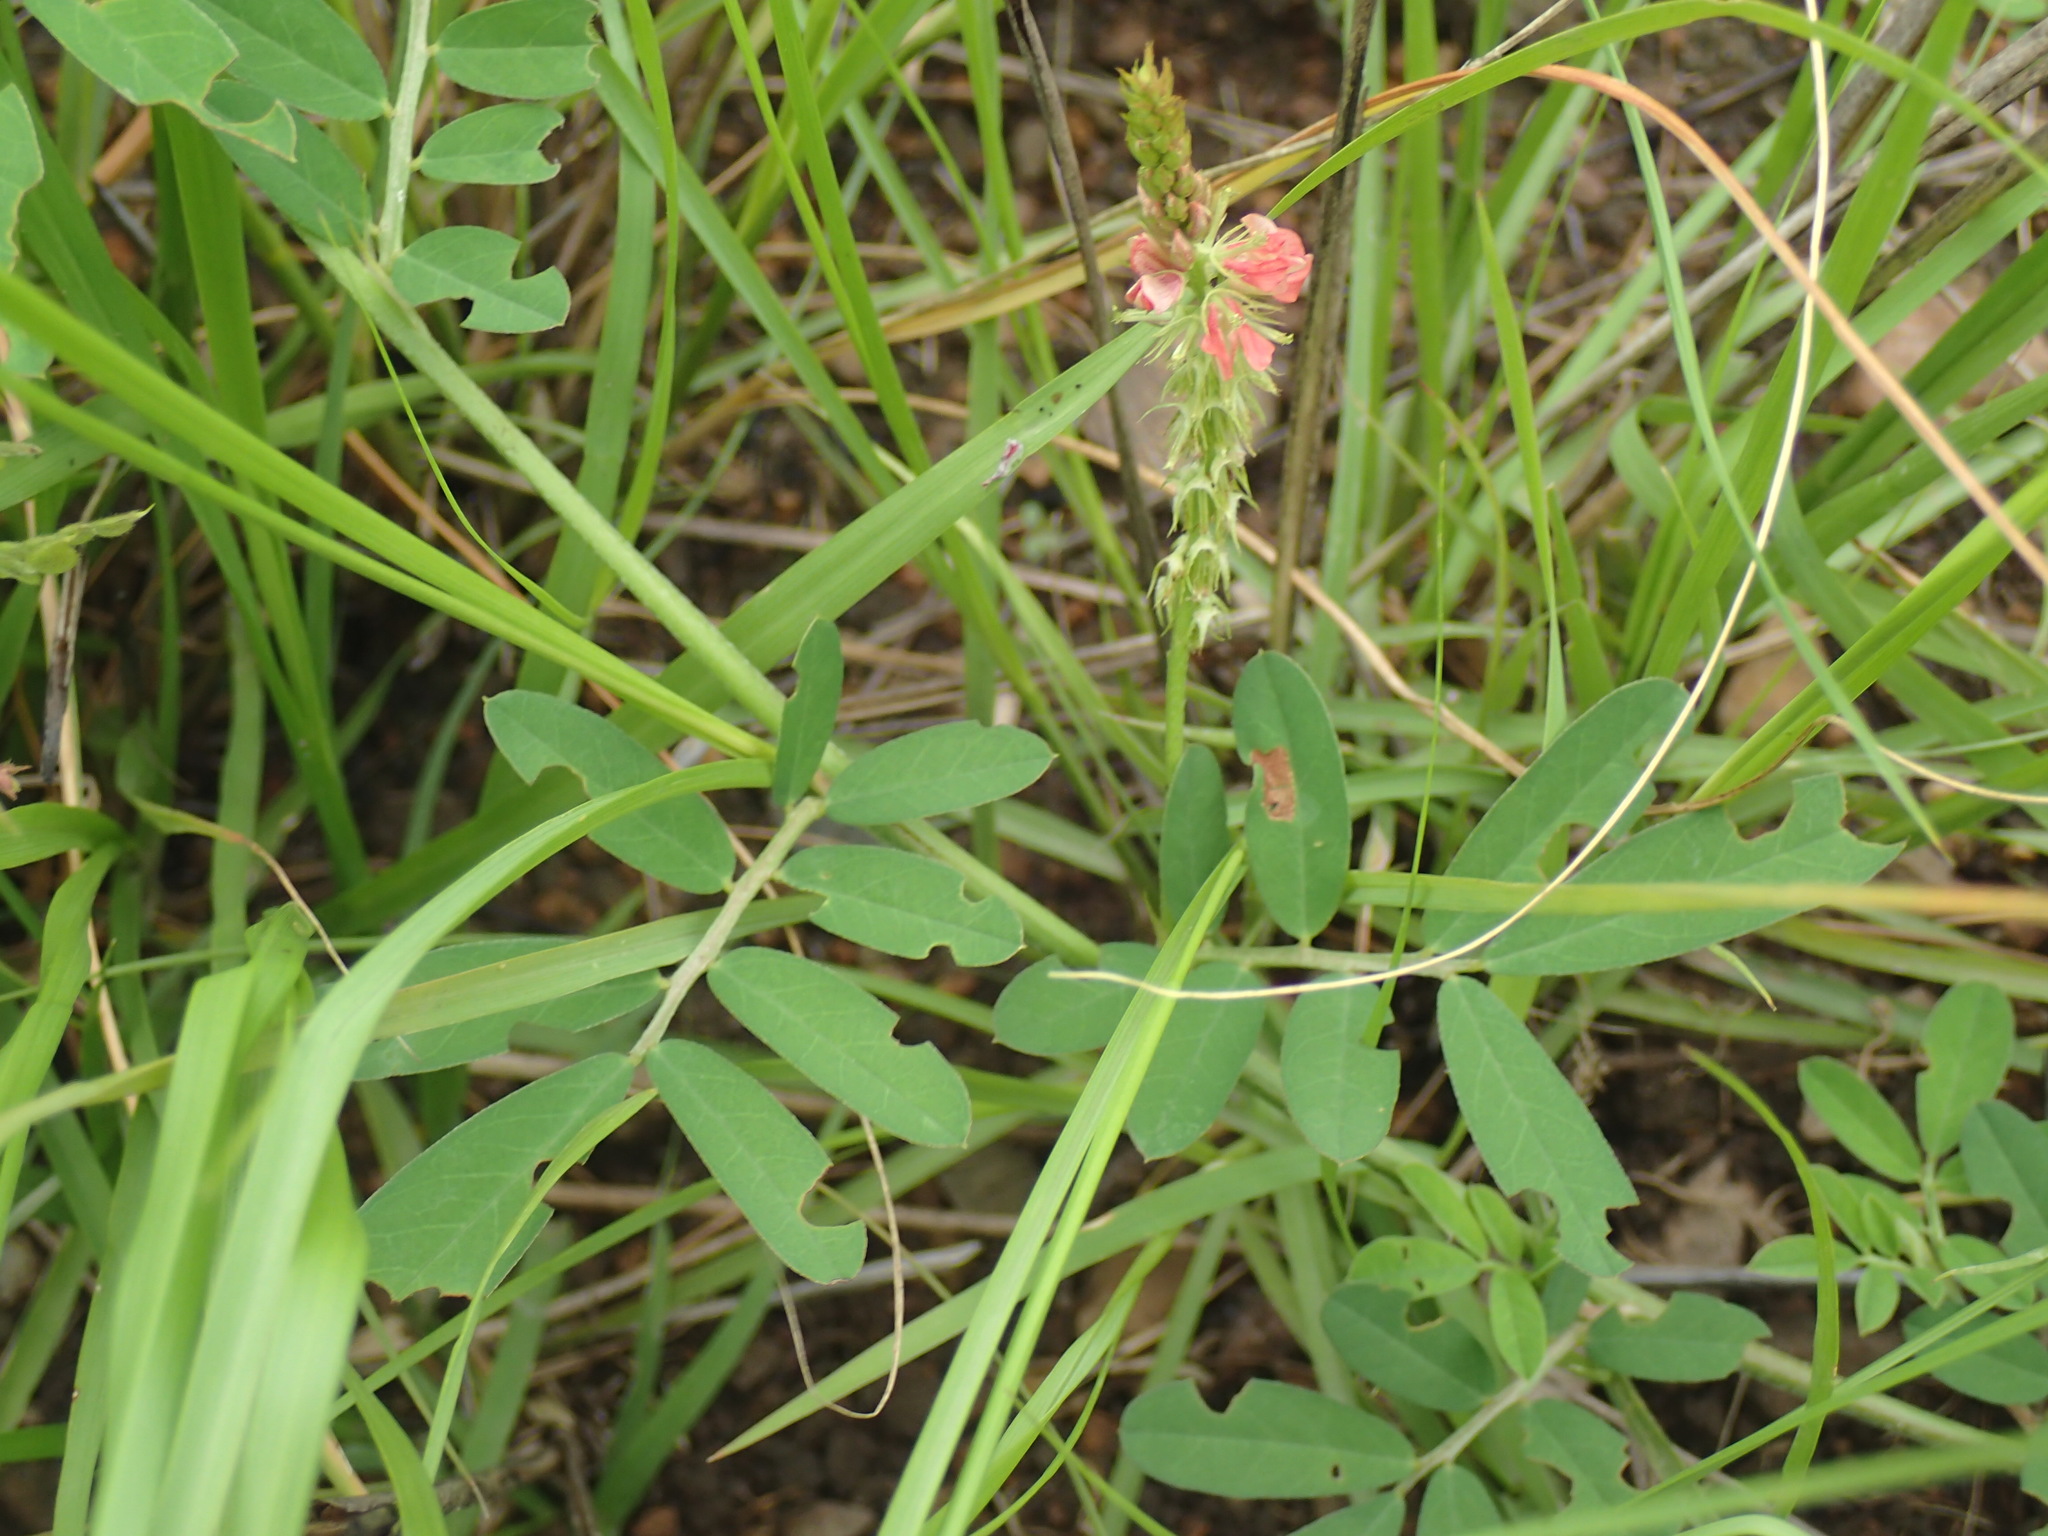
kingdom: Plantae
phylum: Tracheophyta
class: Magnoliopsida
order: Fabales
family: Fabaceae
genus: Indigofera
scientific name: Indigofera hendecaphylla
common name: Trailing indigo
